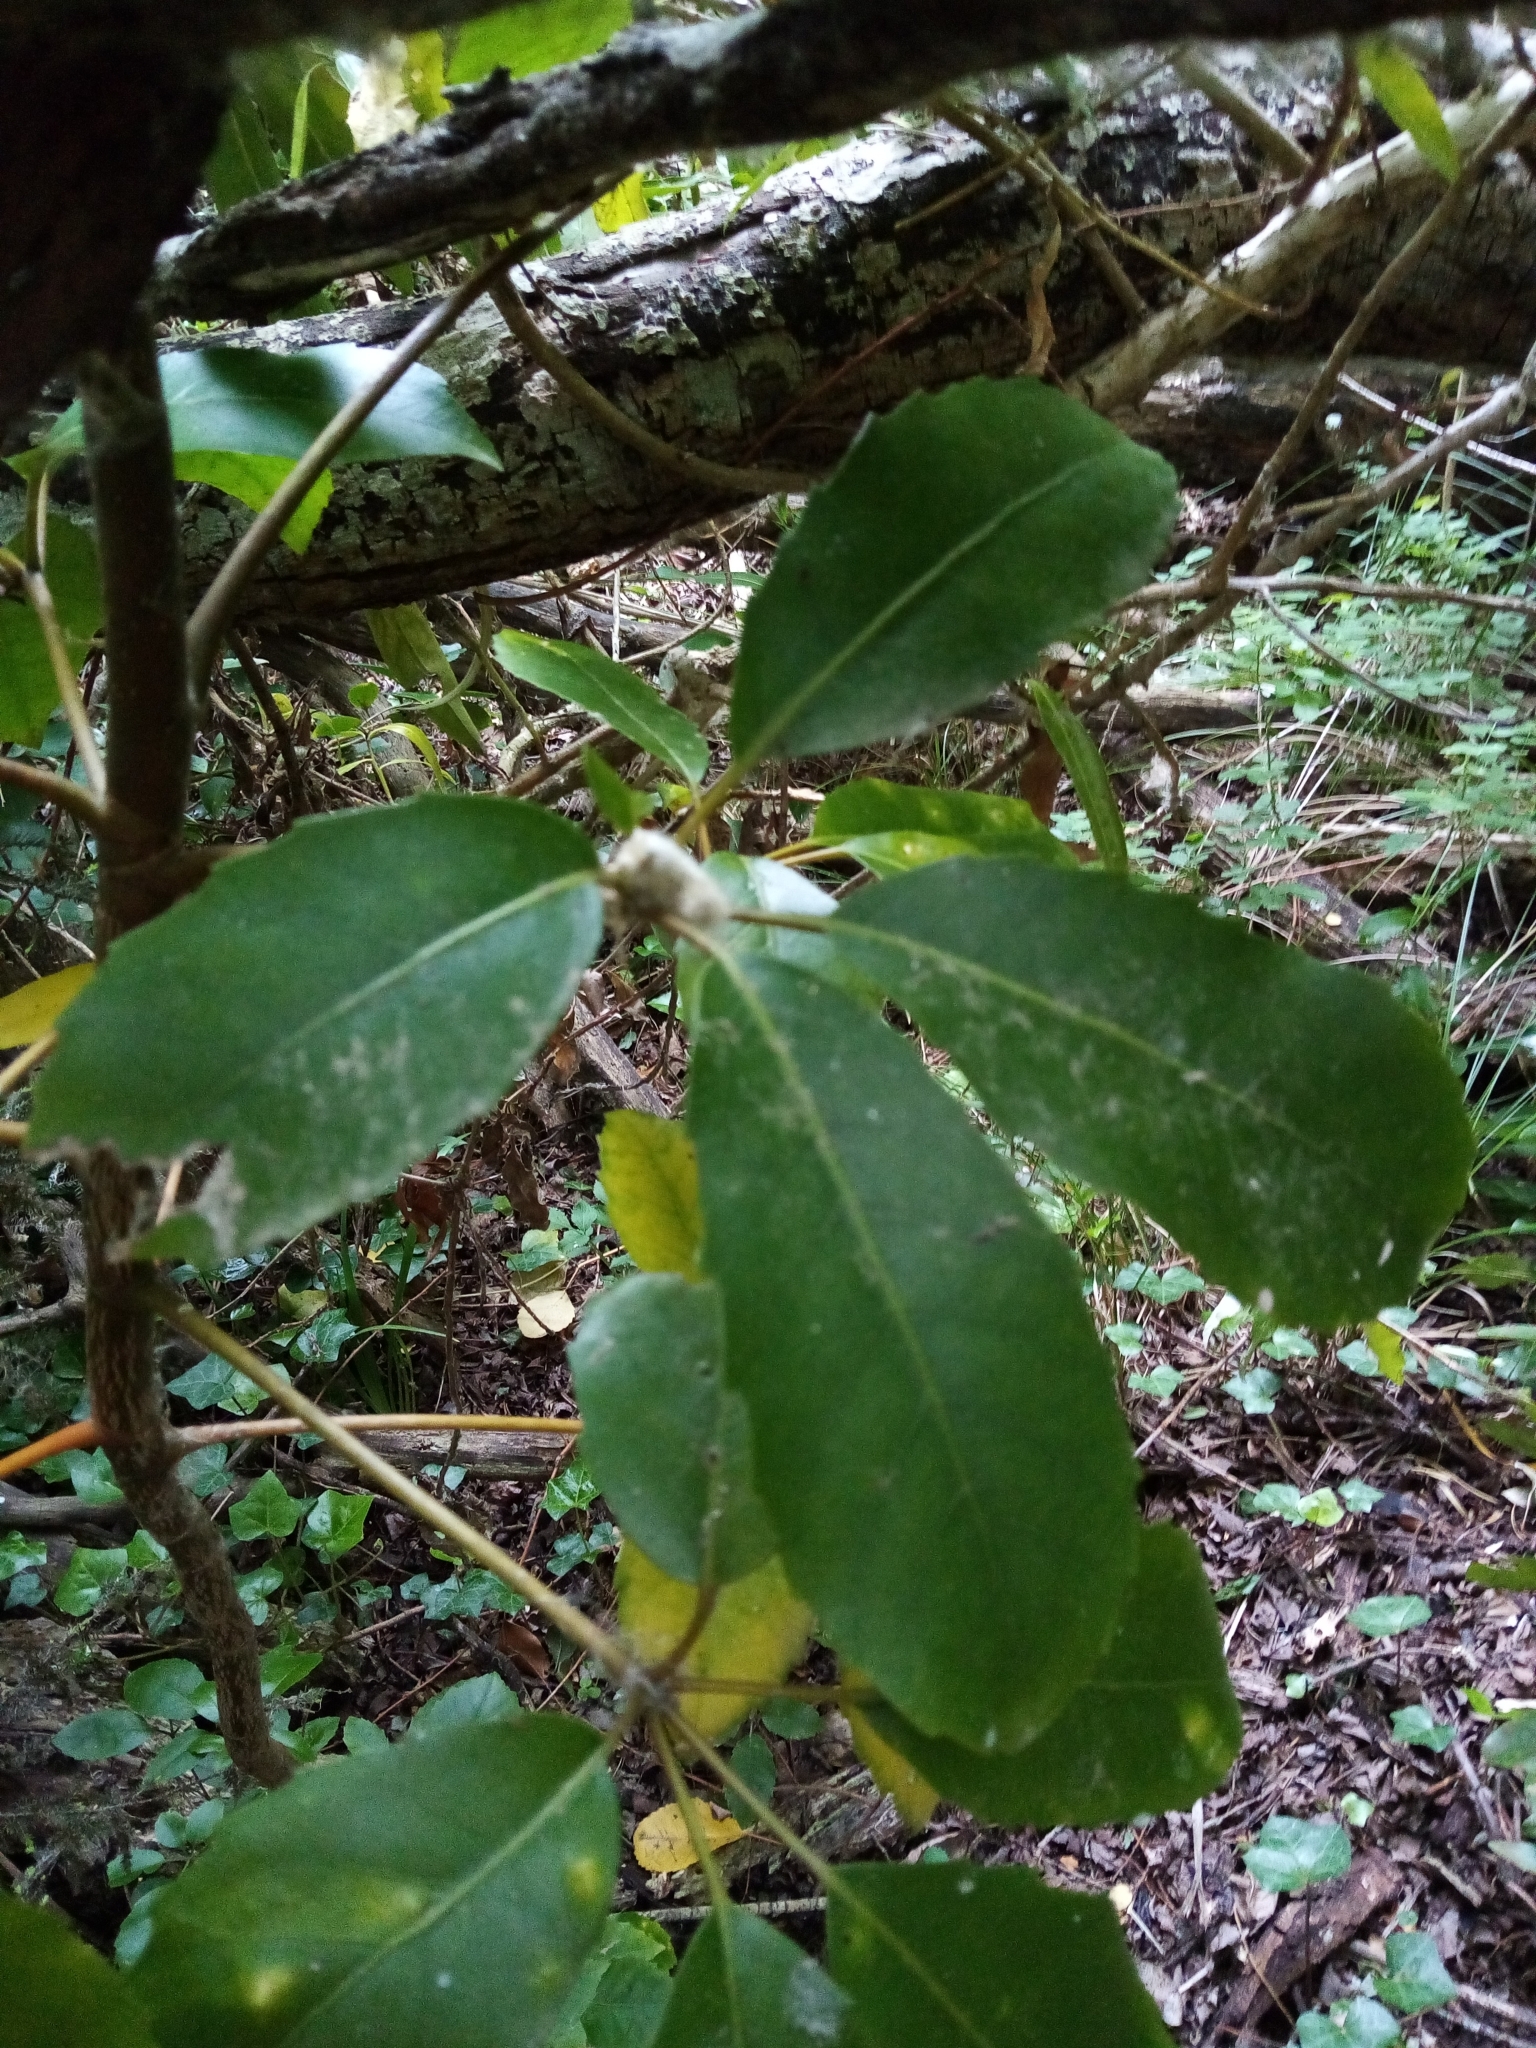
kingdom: Plantae
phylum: Tracheophyta
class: Magnoliopsida
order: Apiales
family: Araliaceae
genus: Neopanax
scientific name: Neopanax arboreus
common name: Five-fingers
